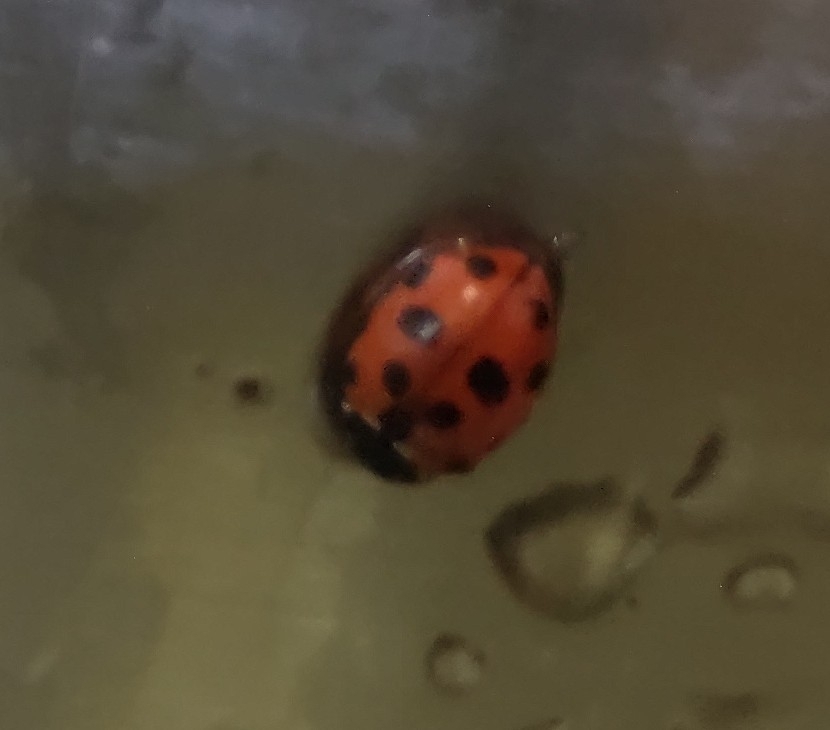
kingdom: Animalia
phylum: Arthropoda
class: Insecta
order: Coleoptera
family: Coccinellidae
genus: Hippodamia
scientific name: Hippodamia variegata
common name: Ladybird beetle
